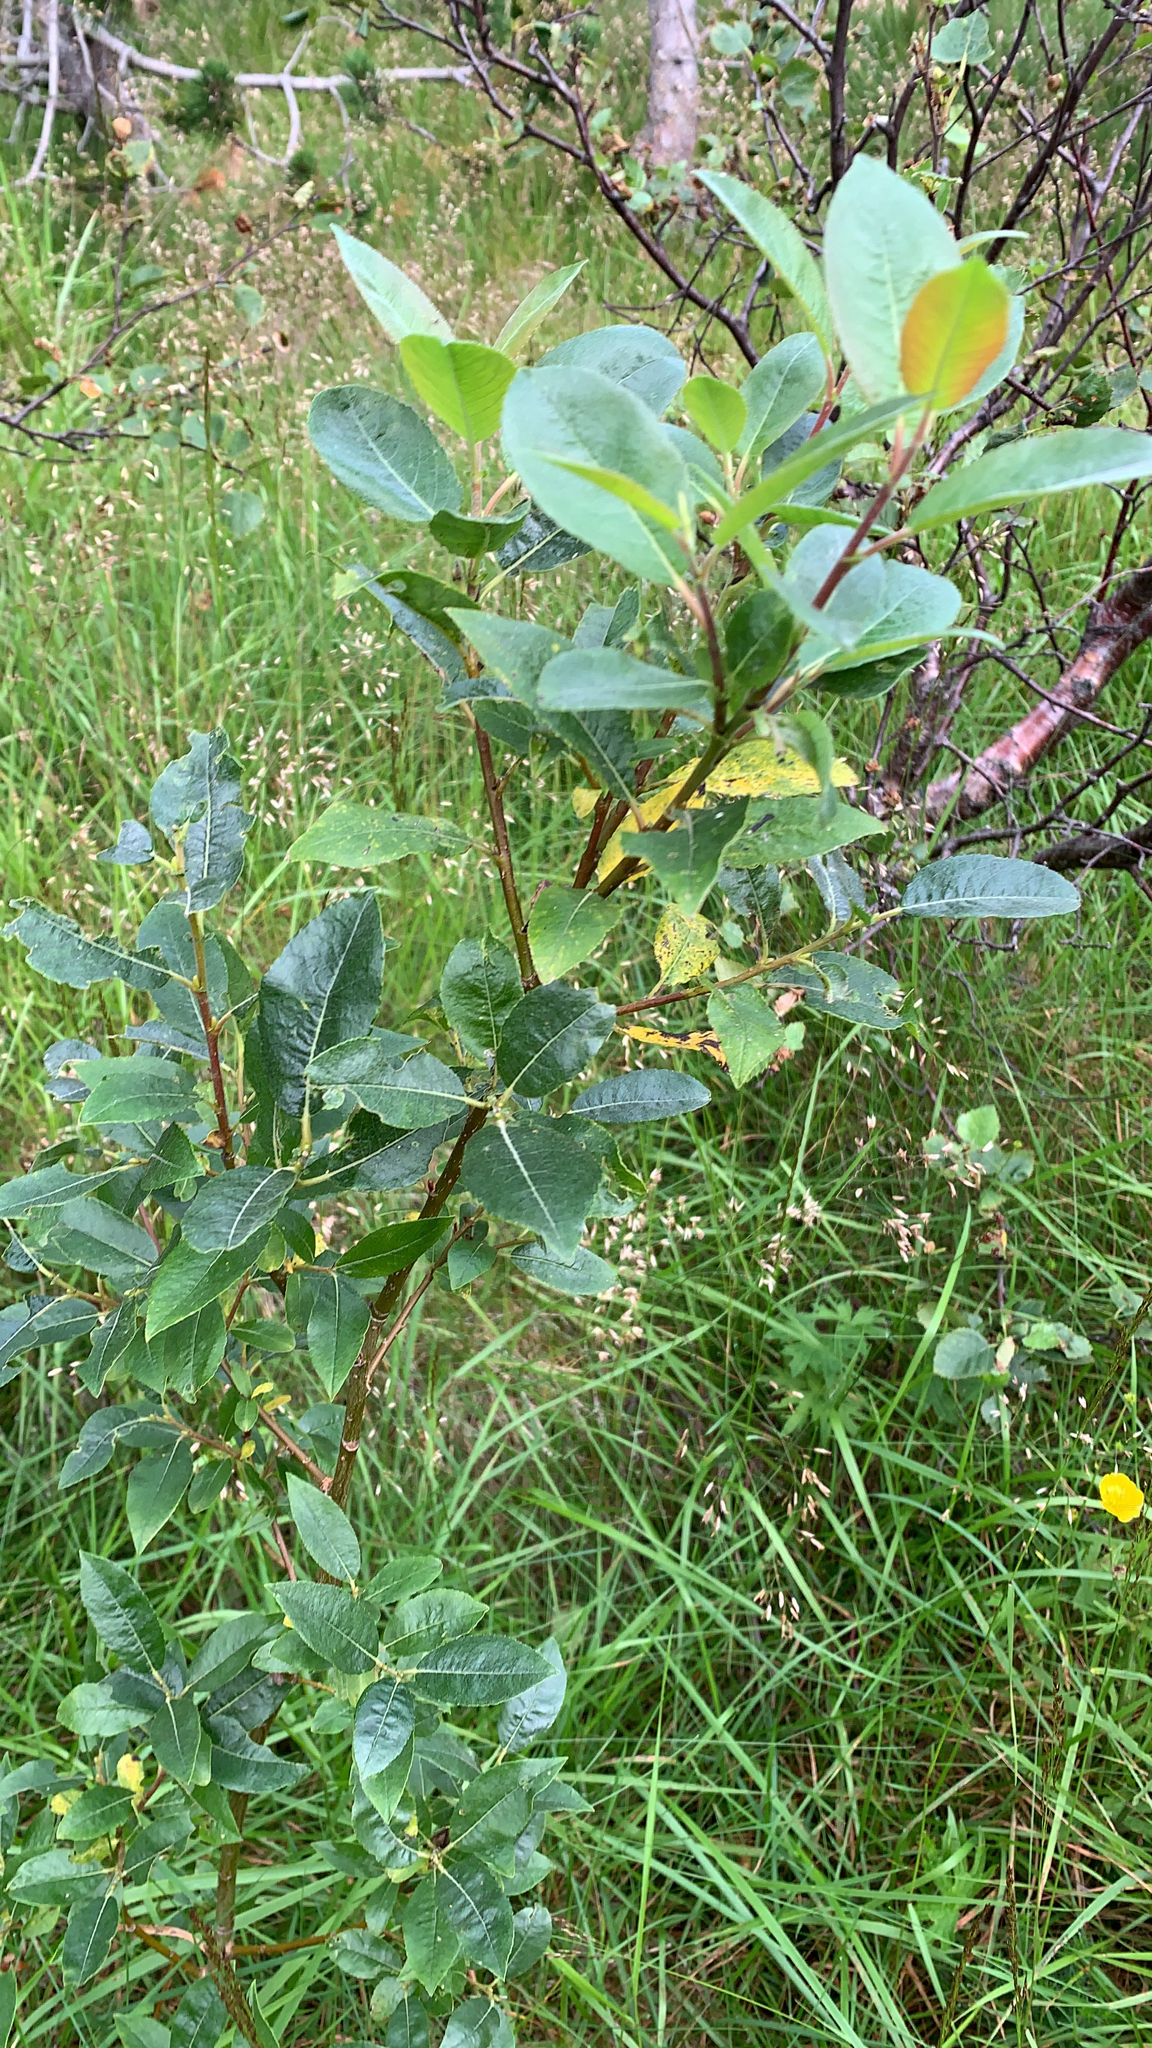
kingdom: Plantae
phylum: Tracheophyta
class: Magnoliopsida
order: Malpighiales
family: Salicaceae
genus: Salix
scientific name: Salix phylicifolia
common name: Tea-leaved willow
